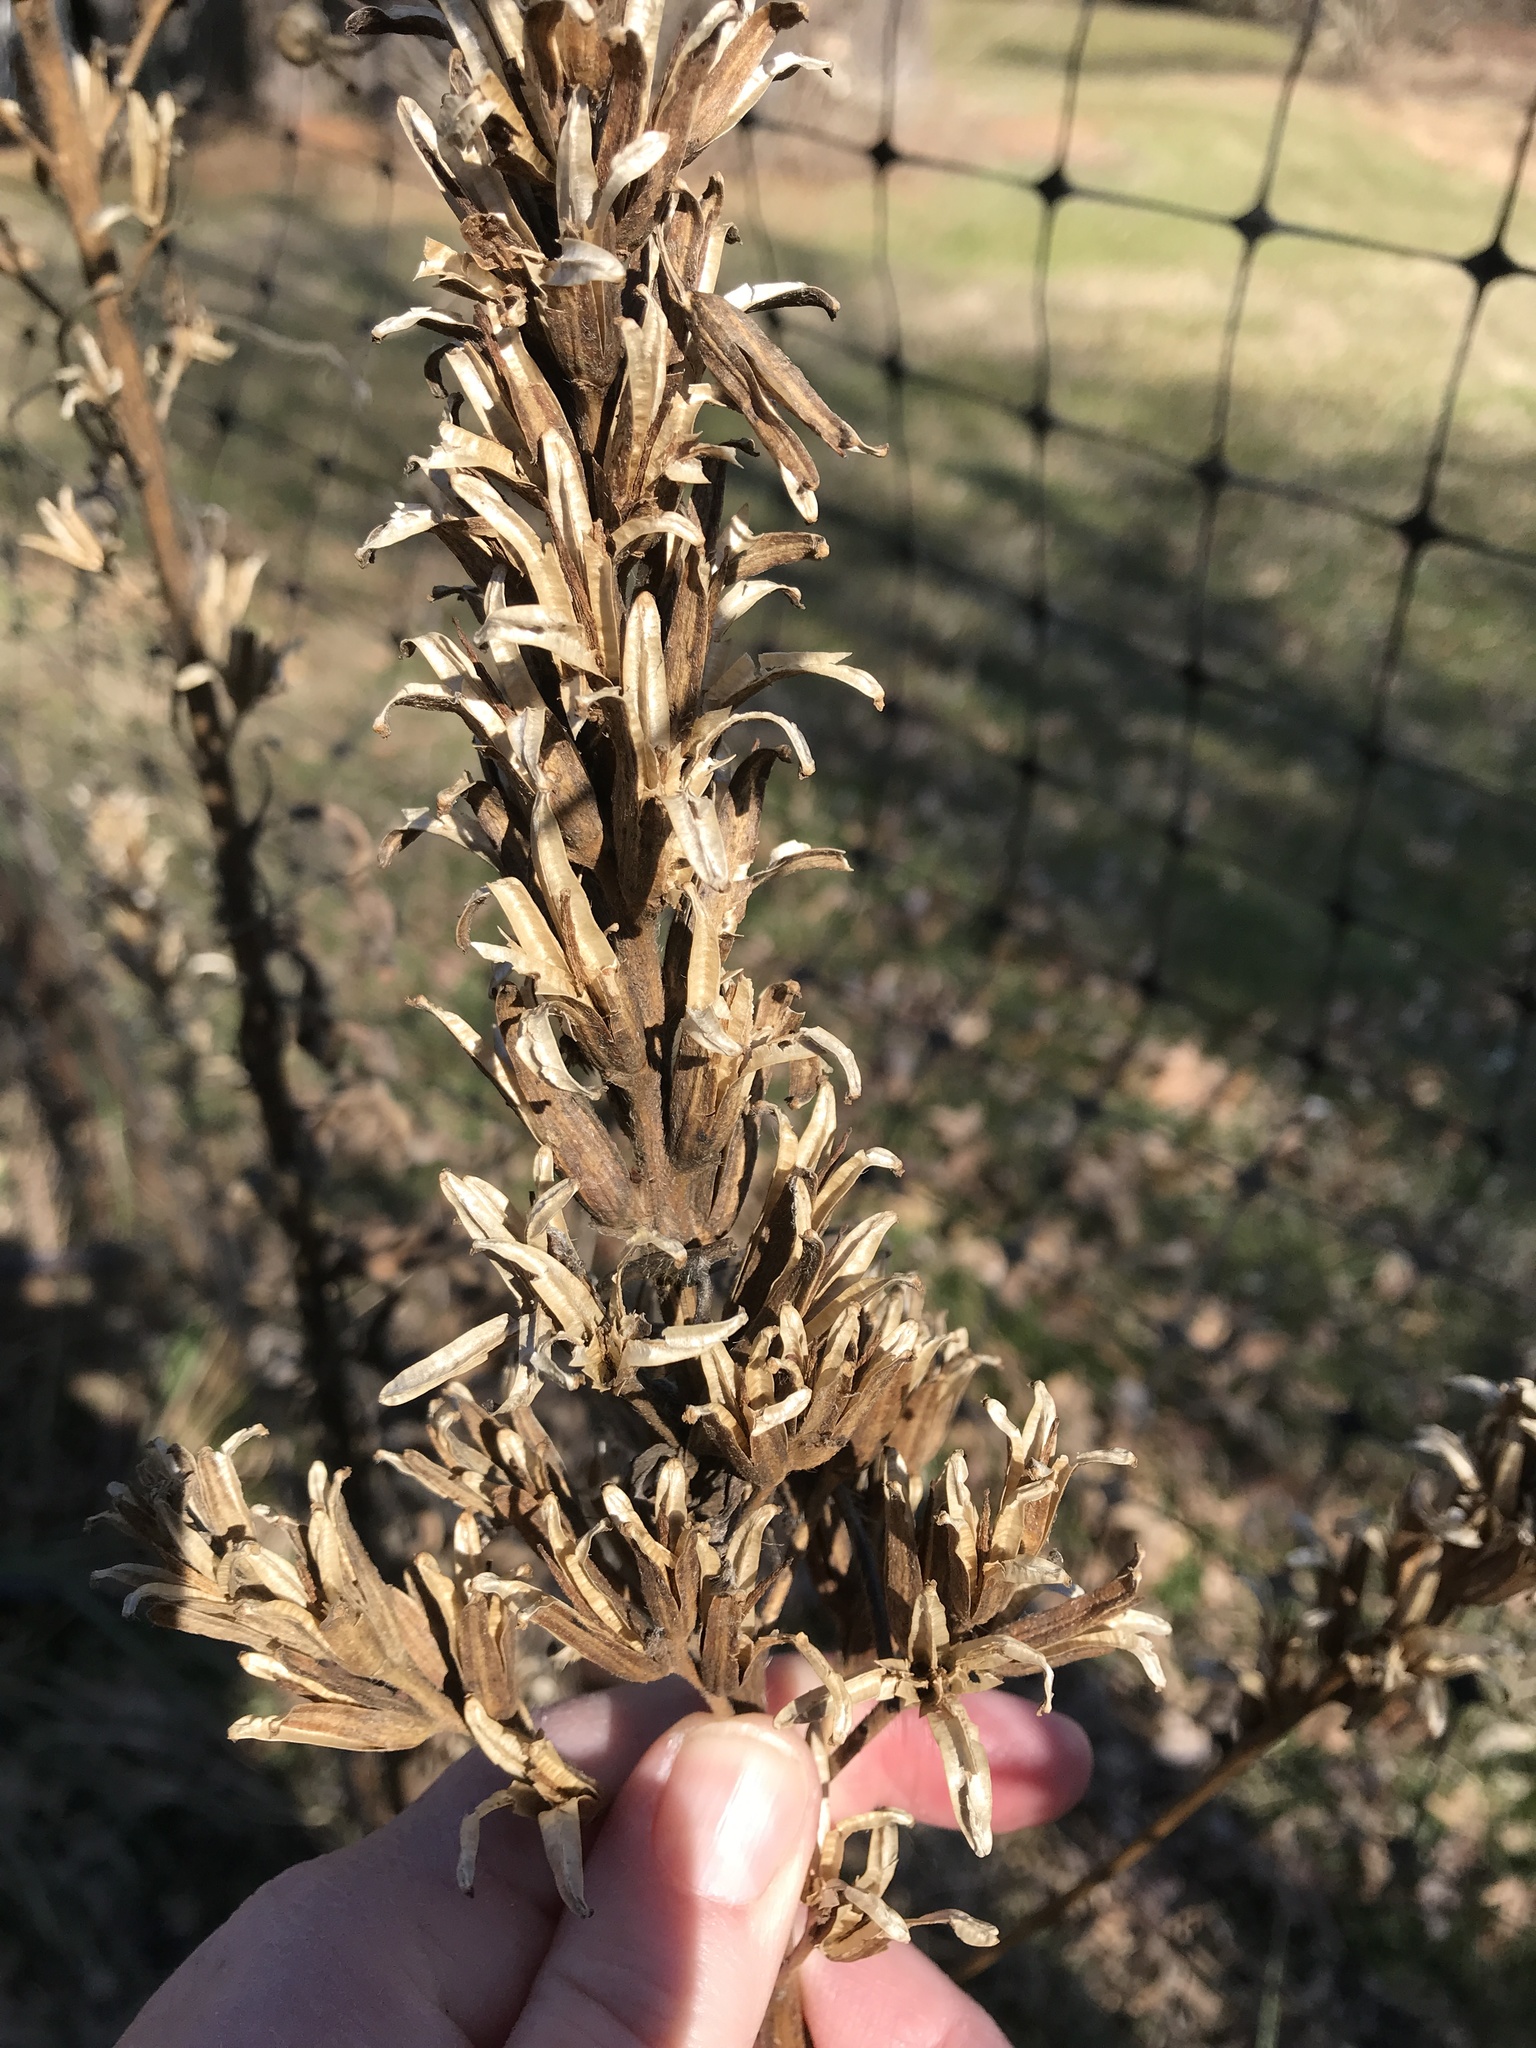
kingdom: Plantae
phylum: Tracheophyta
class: Magnoliopsida
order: Myrtales
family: Onagraceae
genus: Oenothera
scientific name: Oenothera biennis
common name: Common evening-primrose
